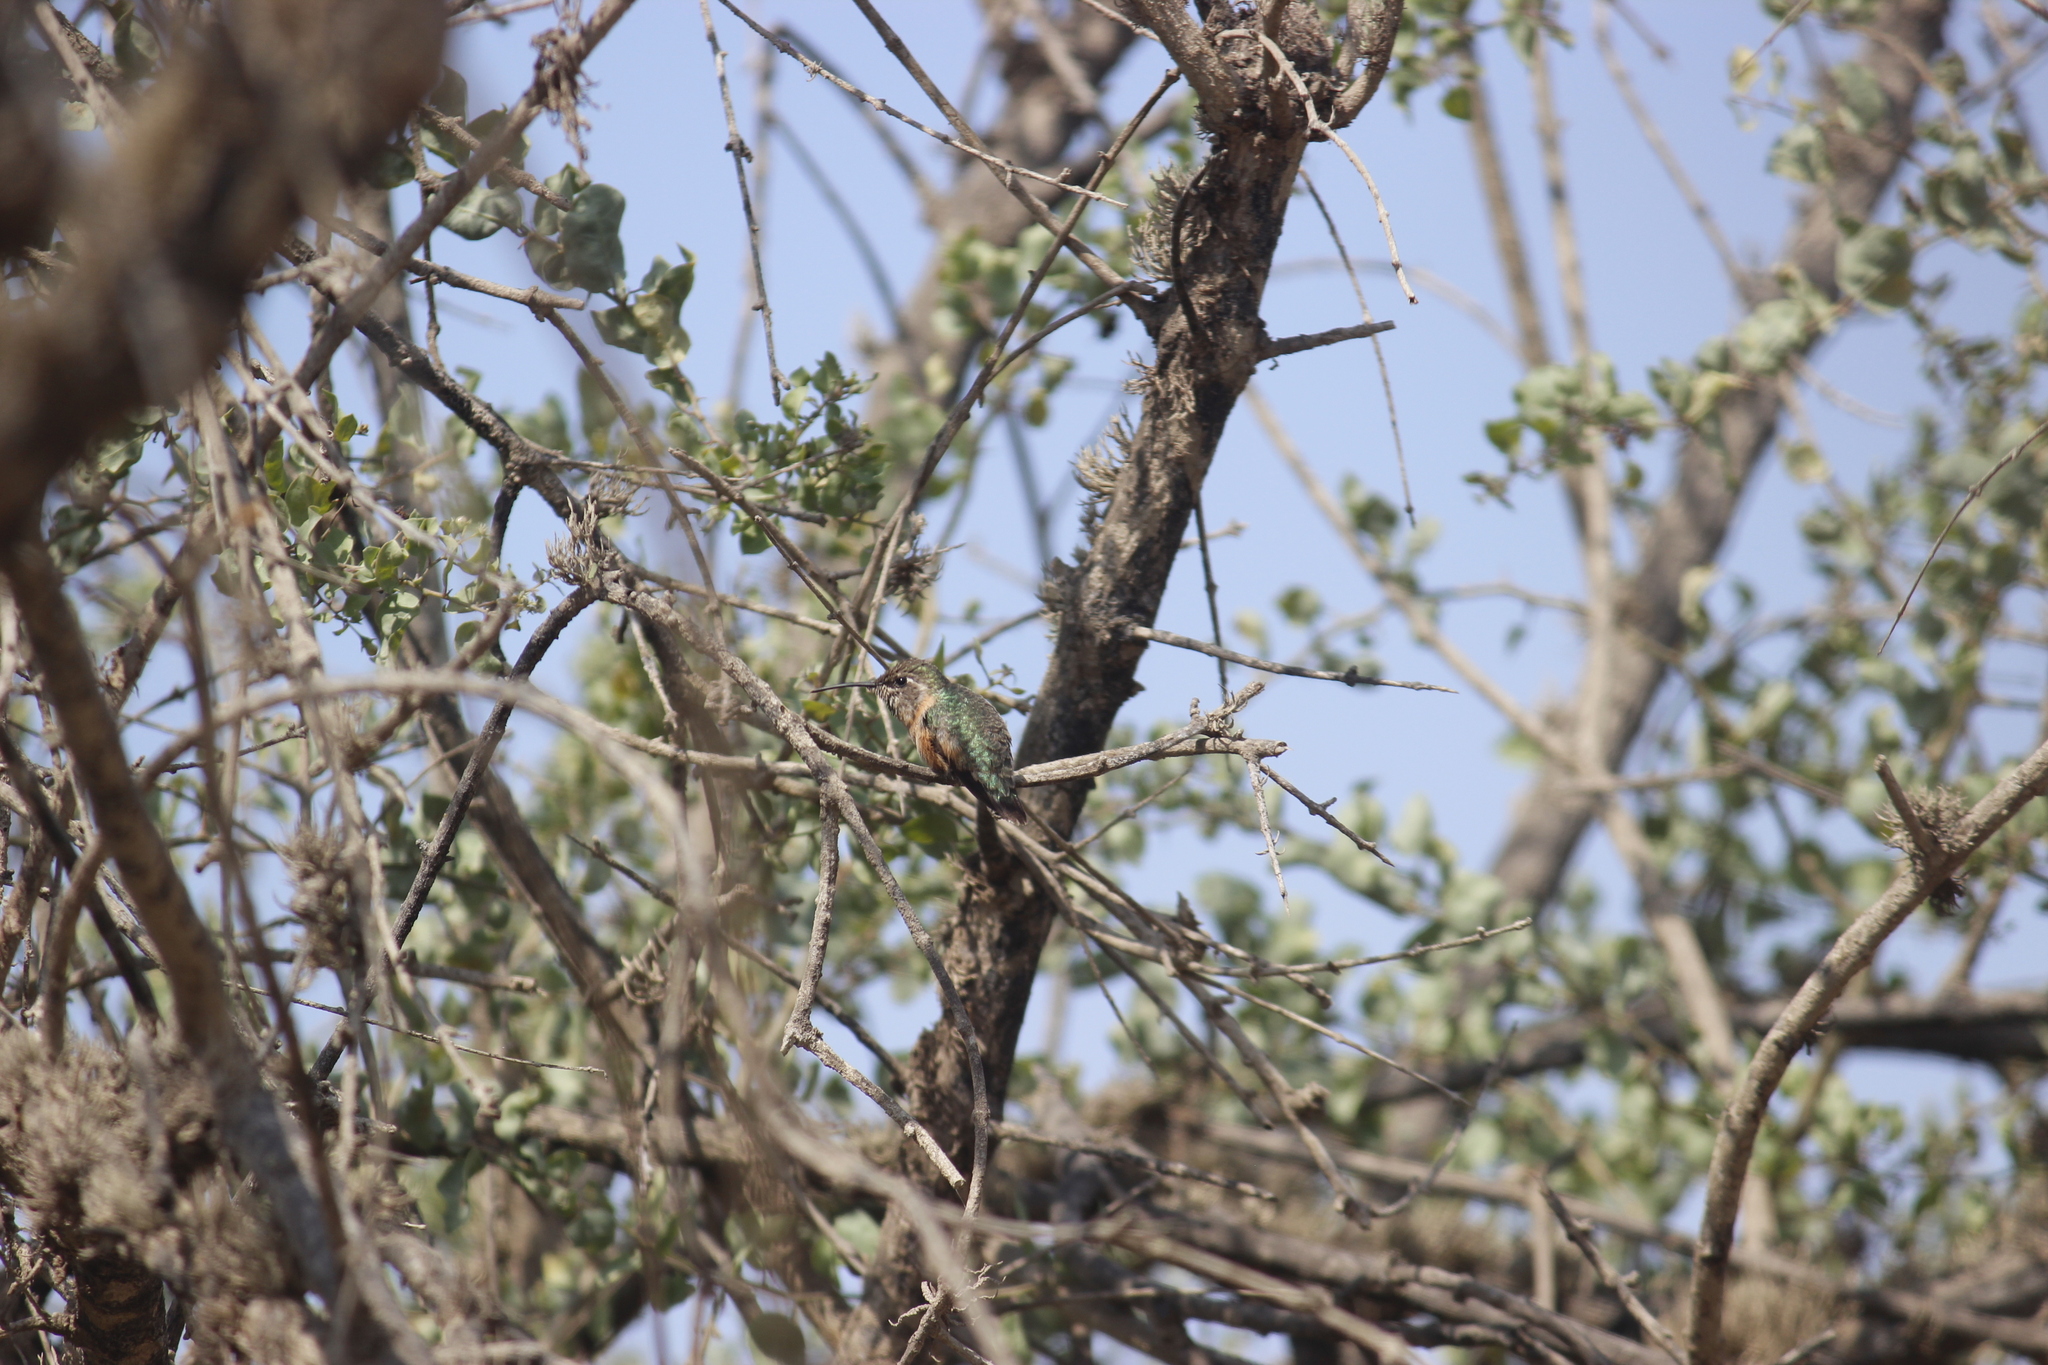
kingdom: Animalia
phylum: Chordata
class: Aves
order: Apodiformes
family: Trochilidae
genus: Myrtis
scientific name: Myrtis fanny
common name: Purple-collared woodstar
